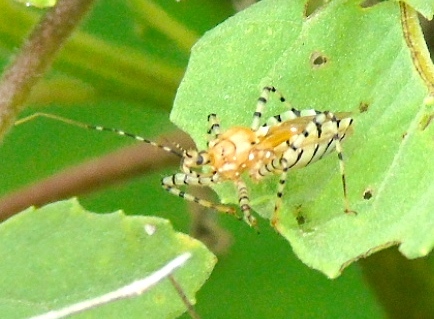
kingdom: Animalia
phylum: Arthropoda
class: Insecta
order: Hemiptera
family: Reduviidae
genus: Pselliopus
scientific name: Pselliopus
